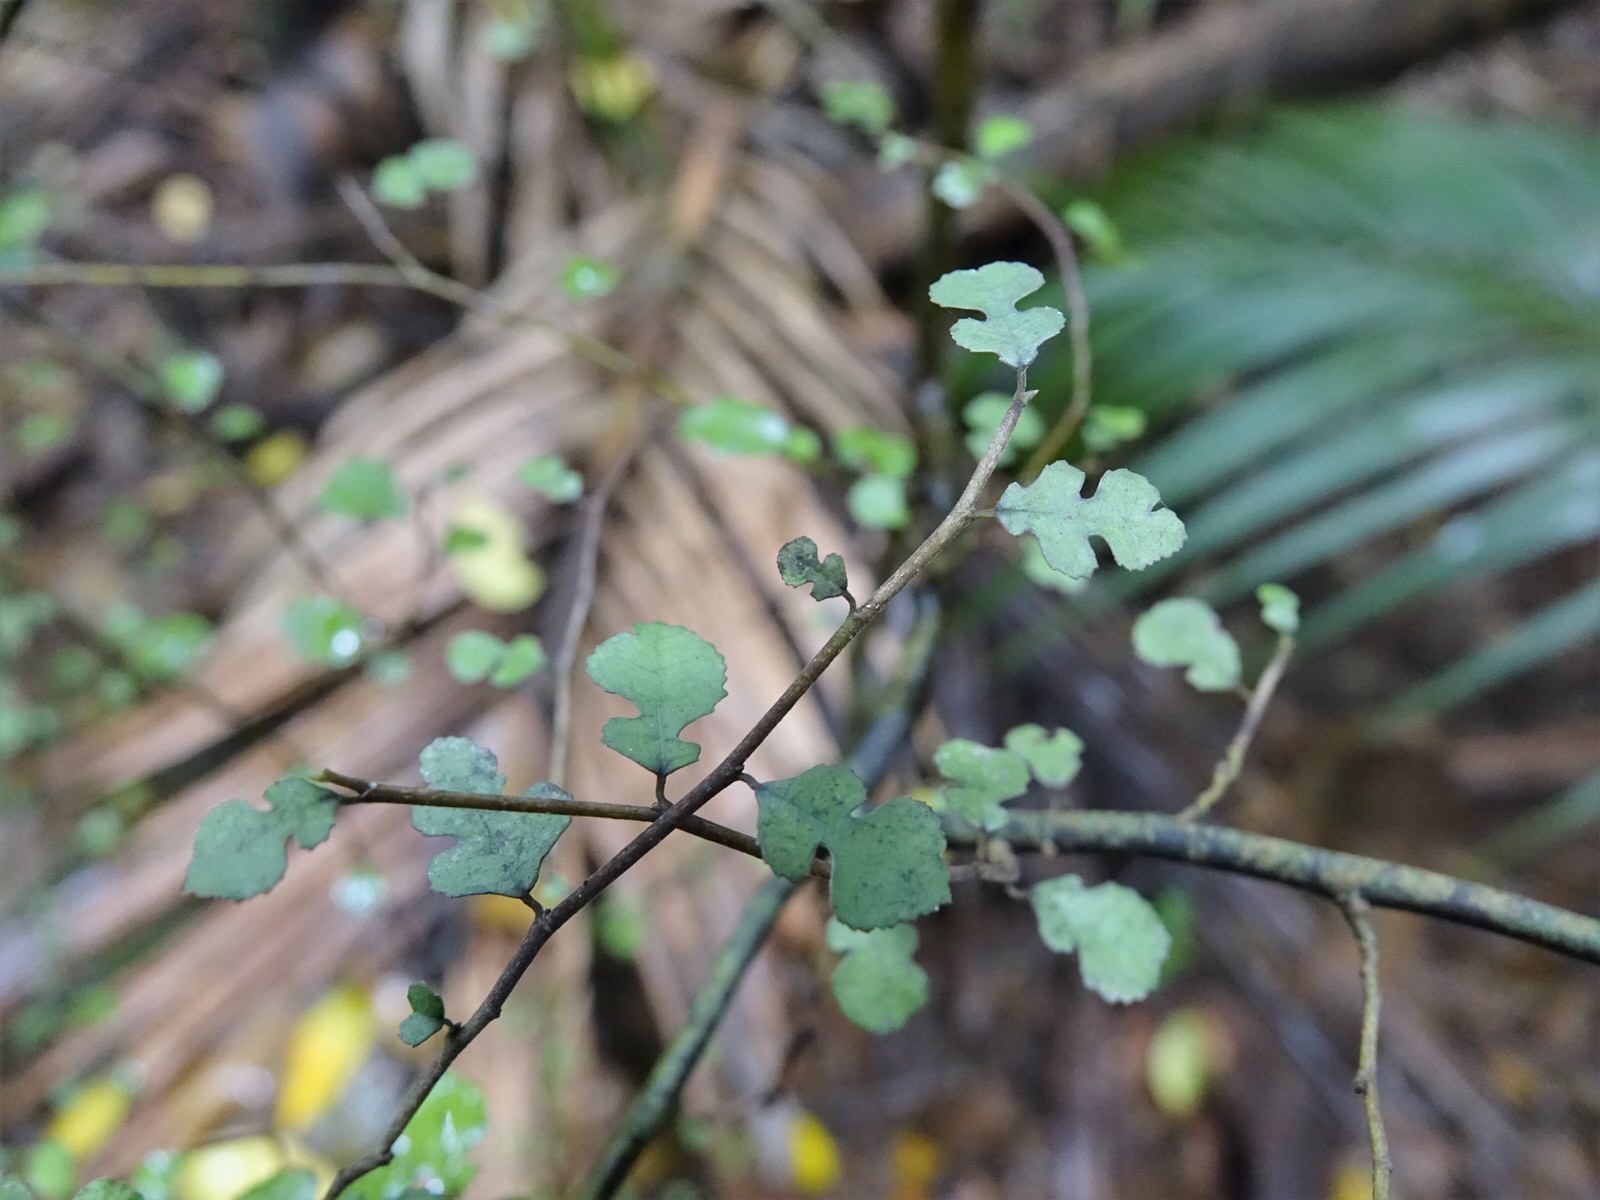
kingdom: Plantae
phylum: Tracheophyta
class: Magnoliopsida
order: Rosales
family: Moraceae
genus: Paratrophis
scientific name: Paratrophis microphylla
